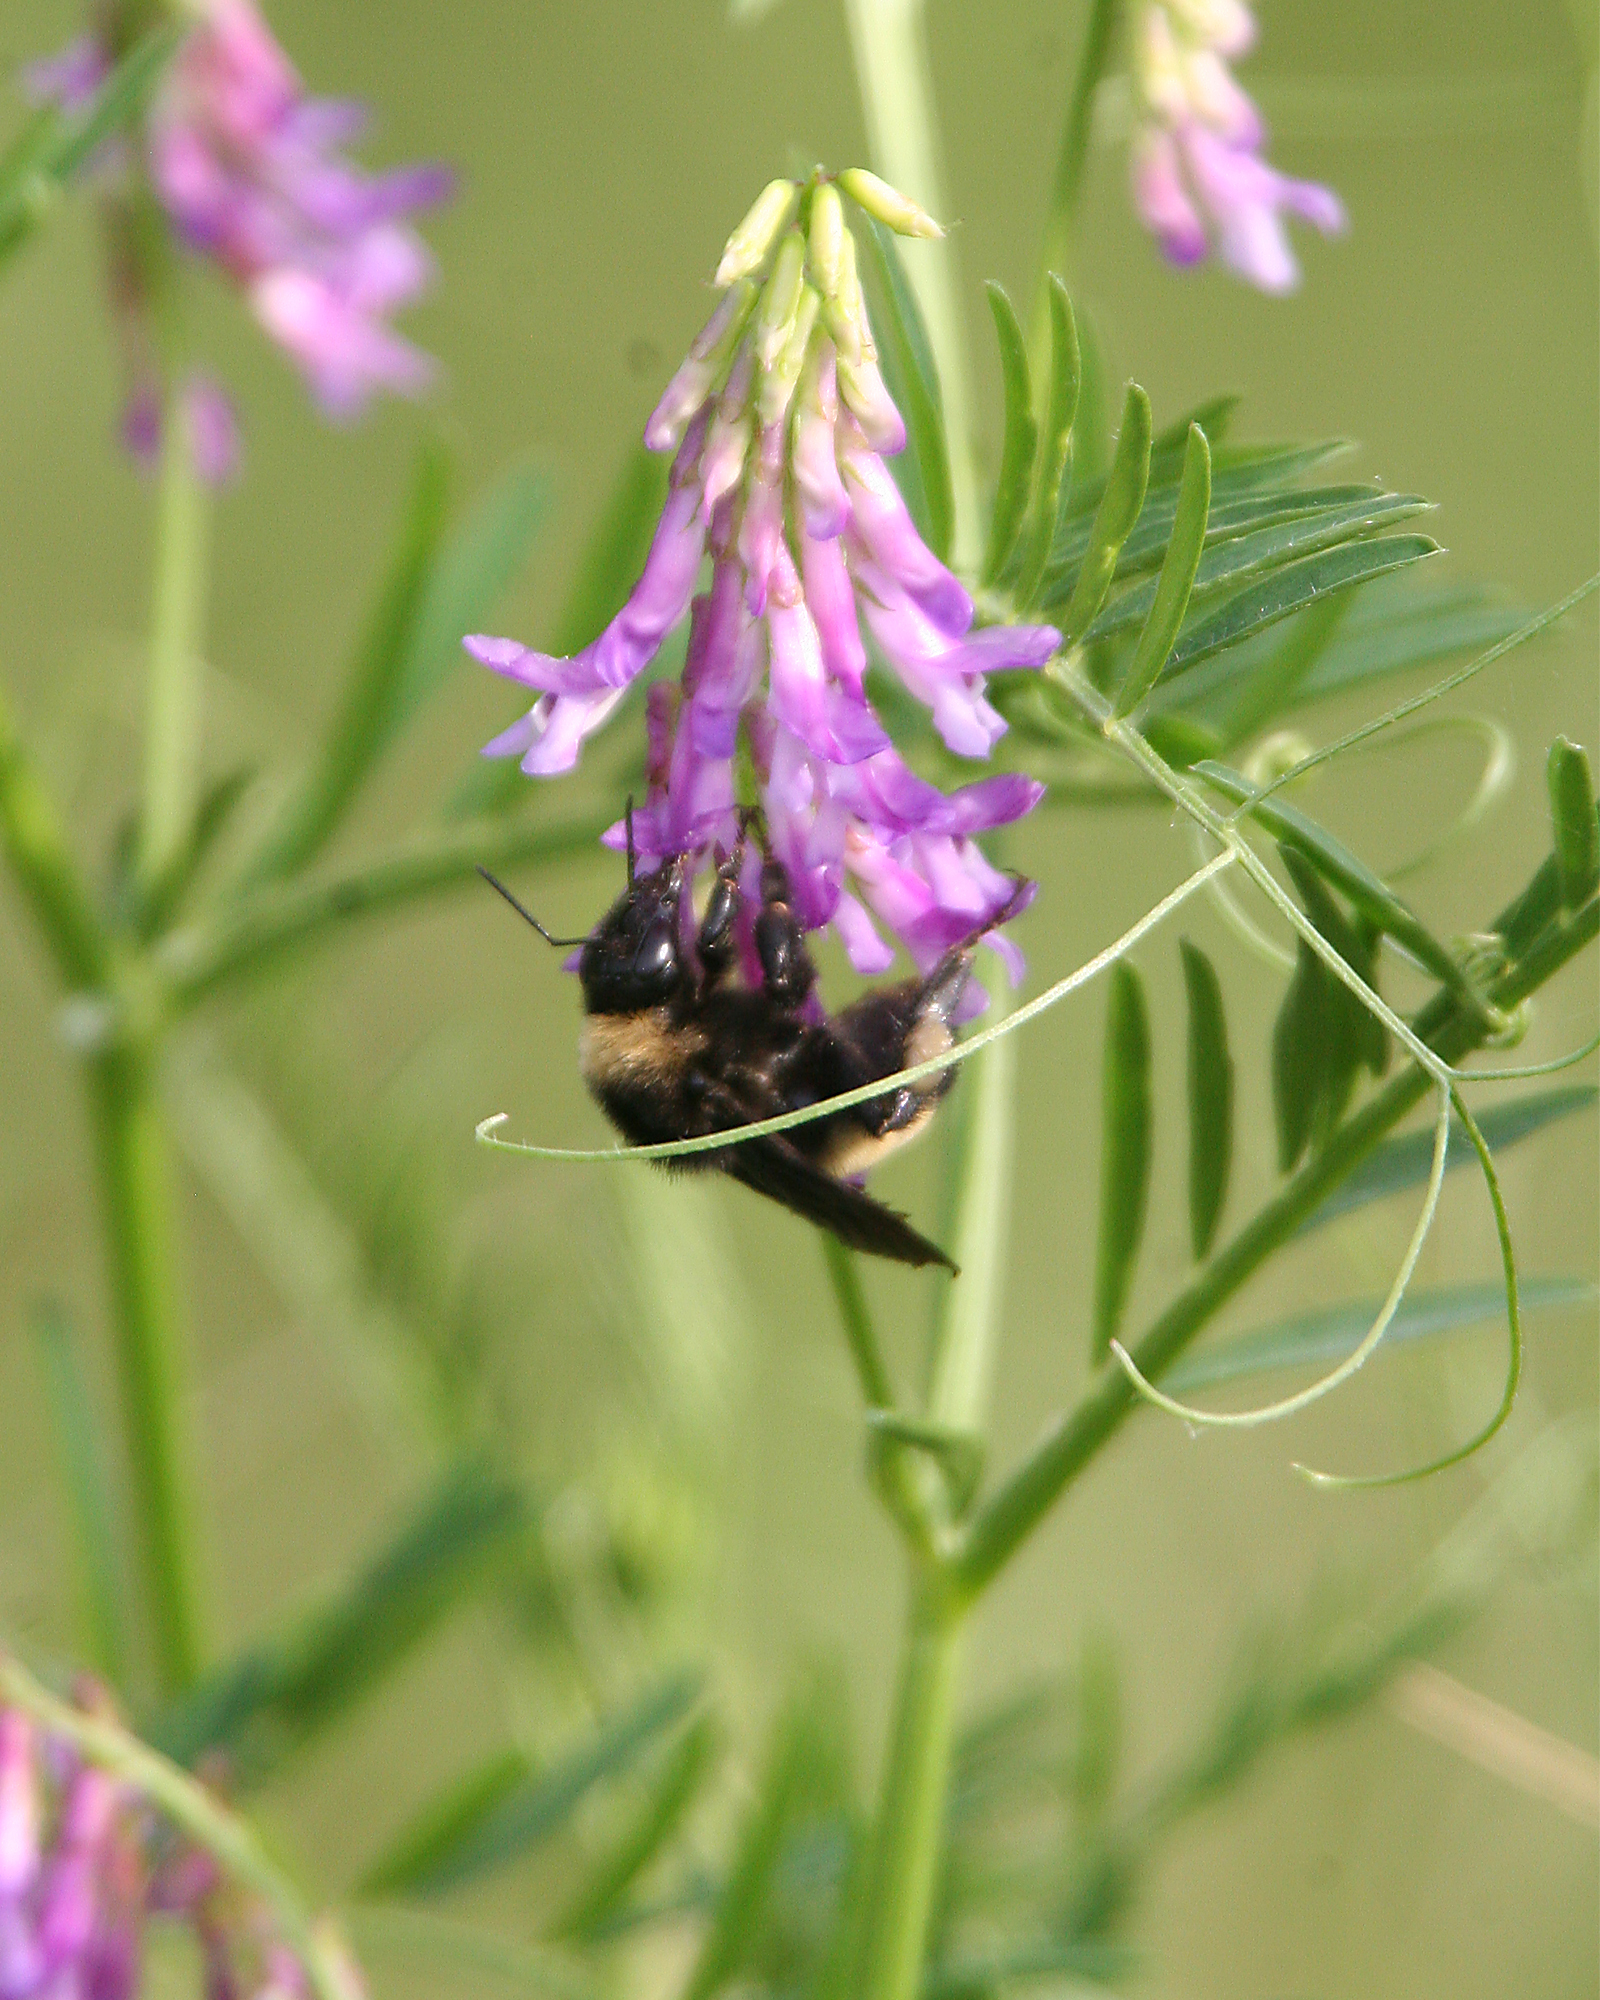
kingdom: Animalia
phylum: Arthropoda
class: Insecta
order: Hymenoptera
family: Apidae
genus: Bombus
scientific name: Bombus pensylvanicus
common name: Bumble bee
